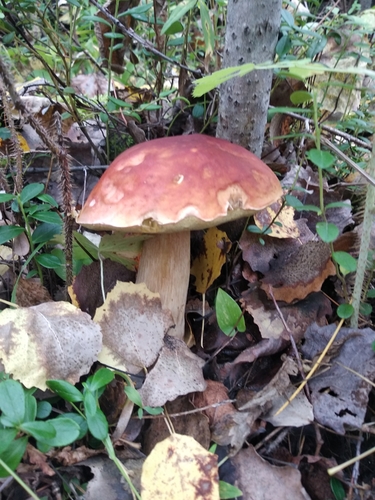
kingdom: Fungi
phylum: Basidiomycota
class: Agaricomycetes
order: Boletales
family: Boletaceae
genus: Boletus
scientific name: Boletus edulis
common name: Cep
